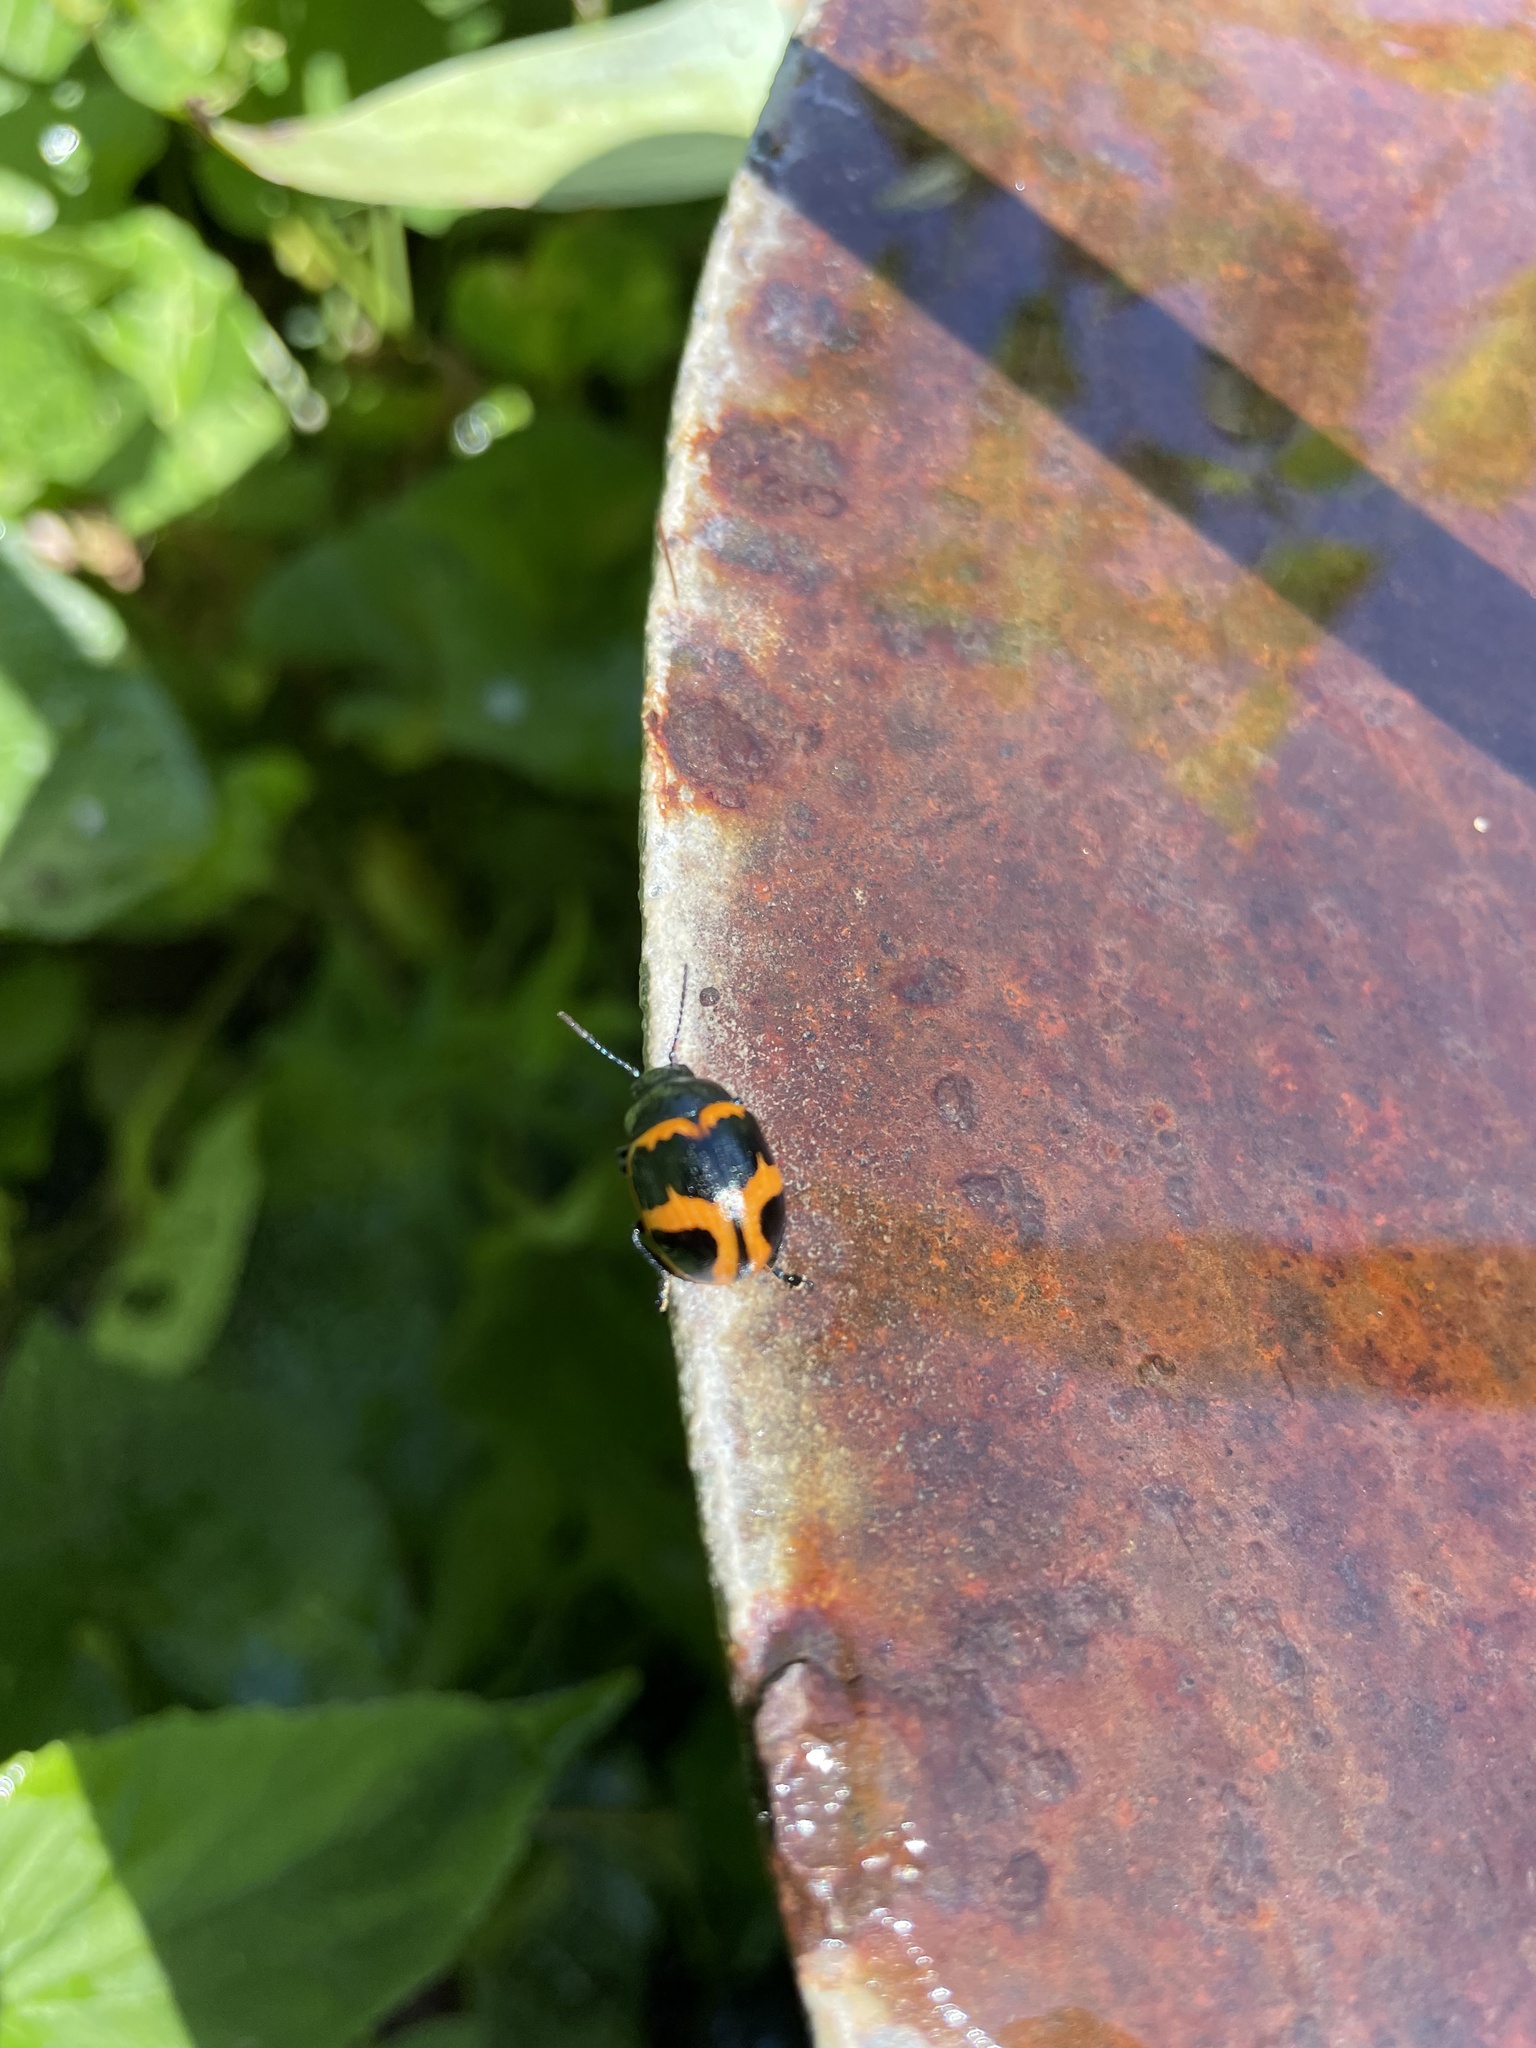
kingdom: Animalia
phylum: Arthropoda
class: Insecta
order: Coleoptera
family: Chrysomelidae
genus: Labidomera
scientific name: Labidomera clivicollis
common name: Swamp milkweed leaf beetle
